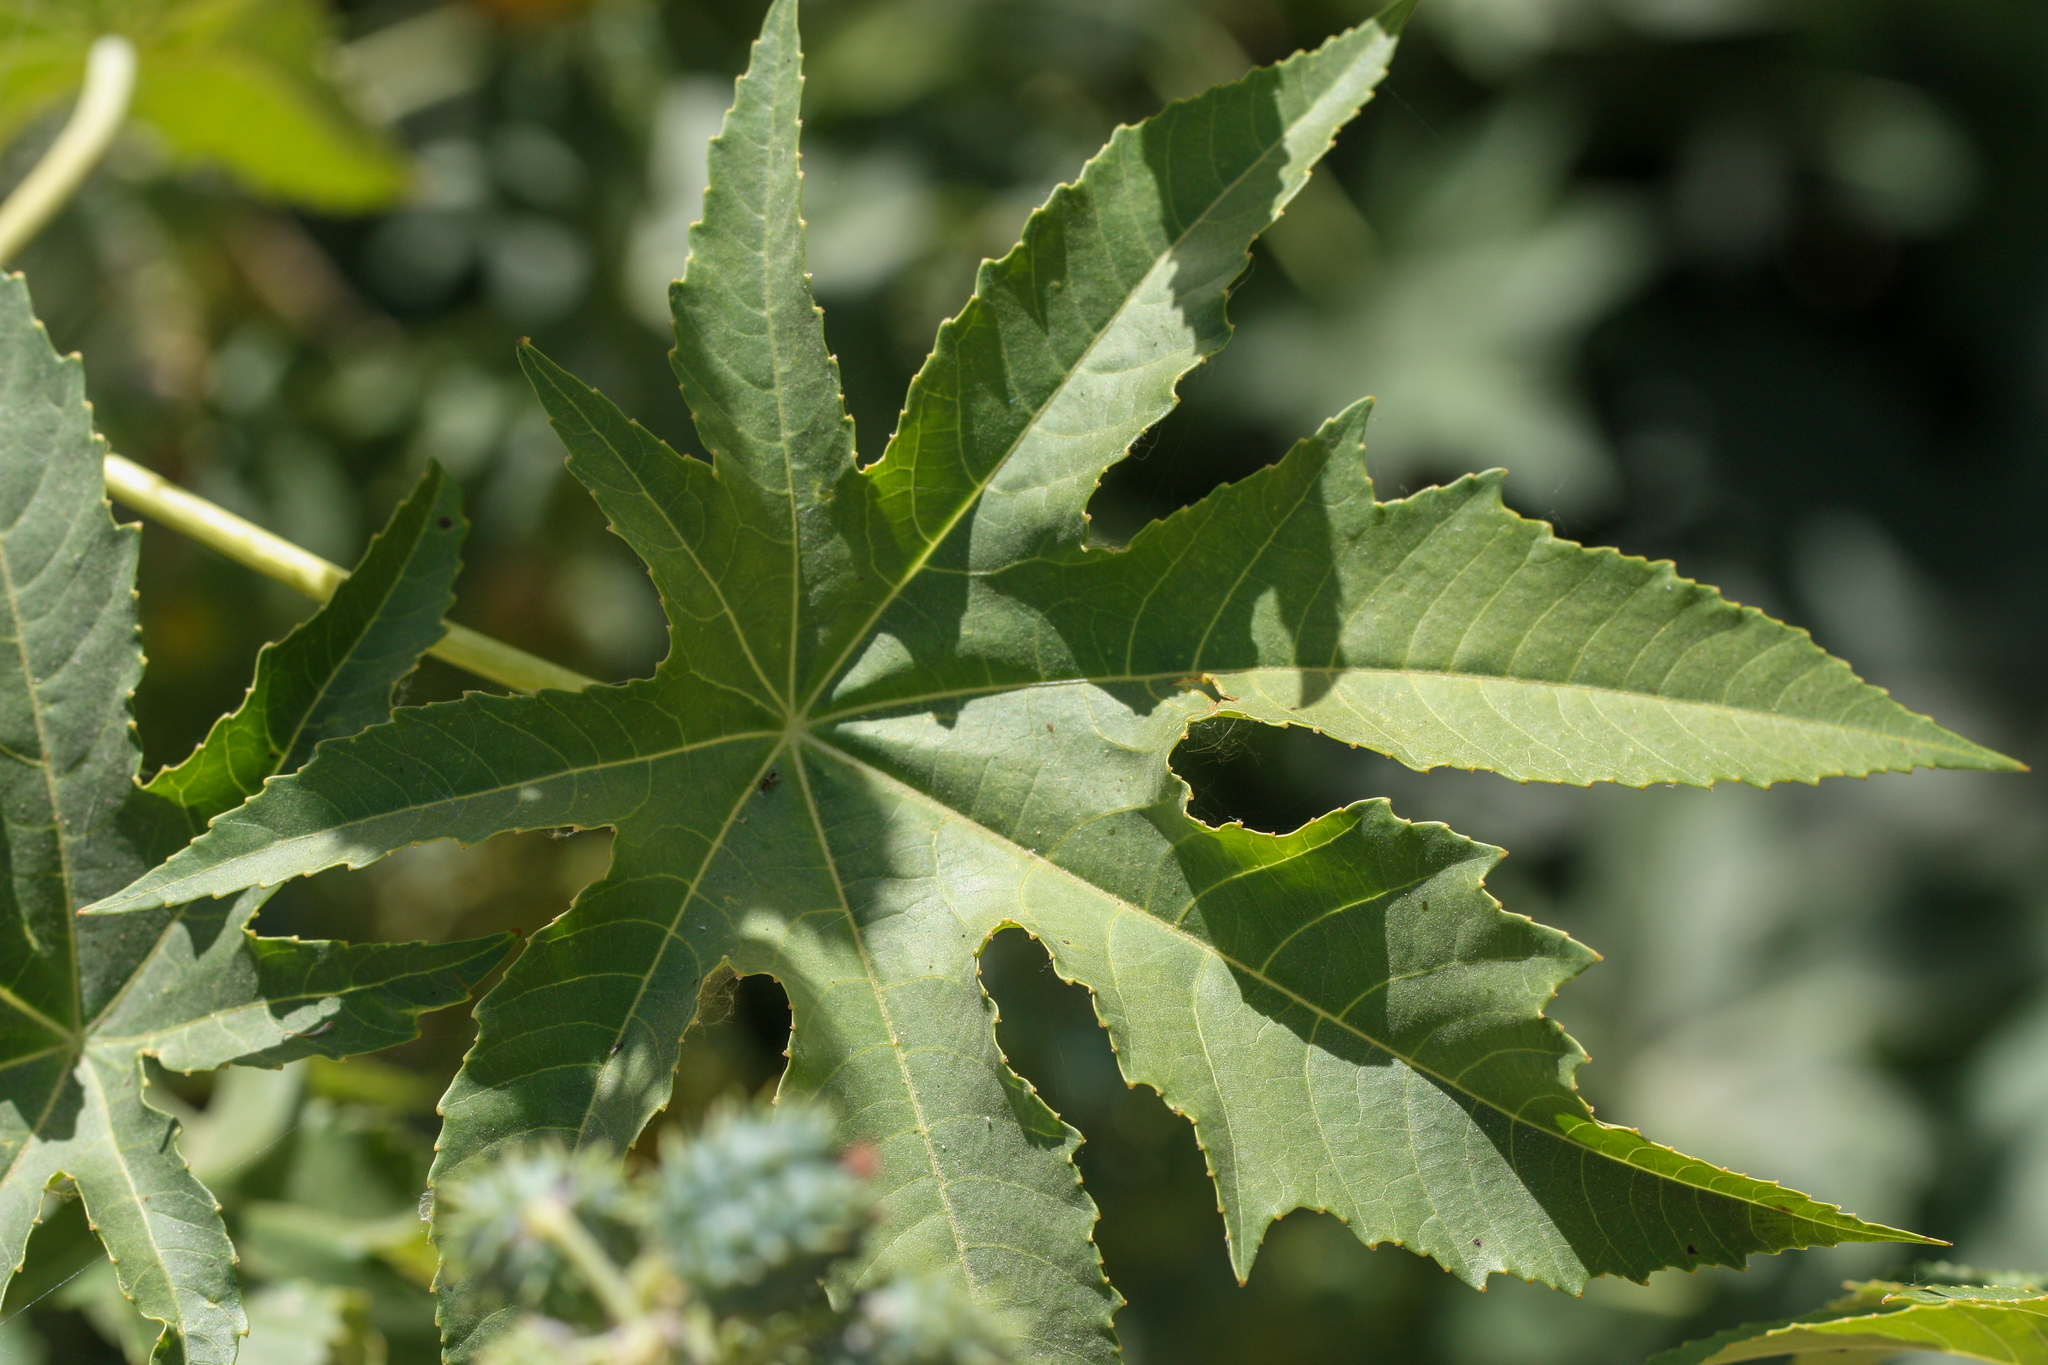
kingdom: Plantae
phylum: Tracheophyta
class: Magnoliopsida
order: Malpighiales
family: Euphorbiaceae
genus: Ricinus
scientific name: Ricinus communis
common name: Castor-oil-plant
